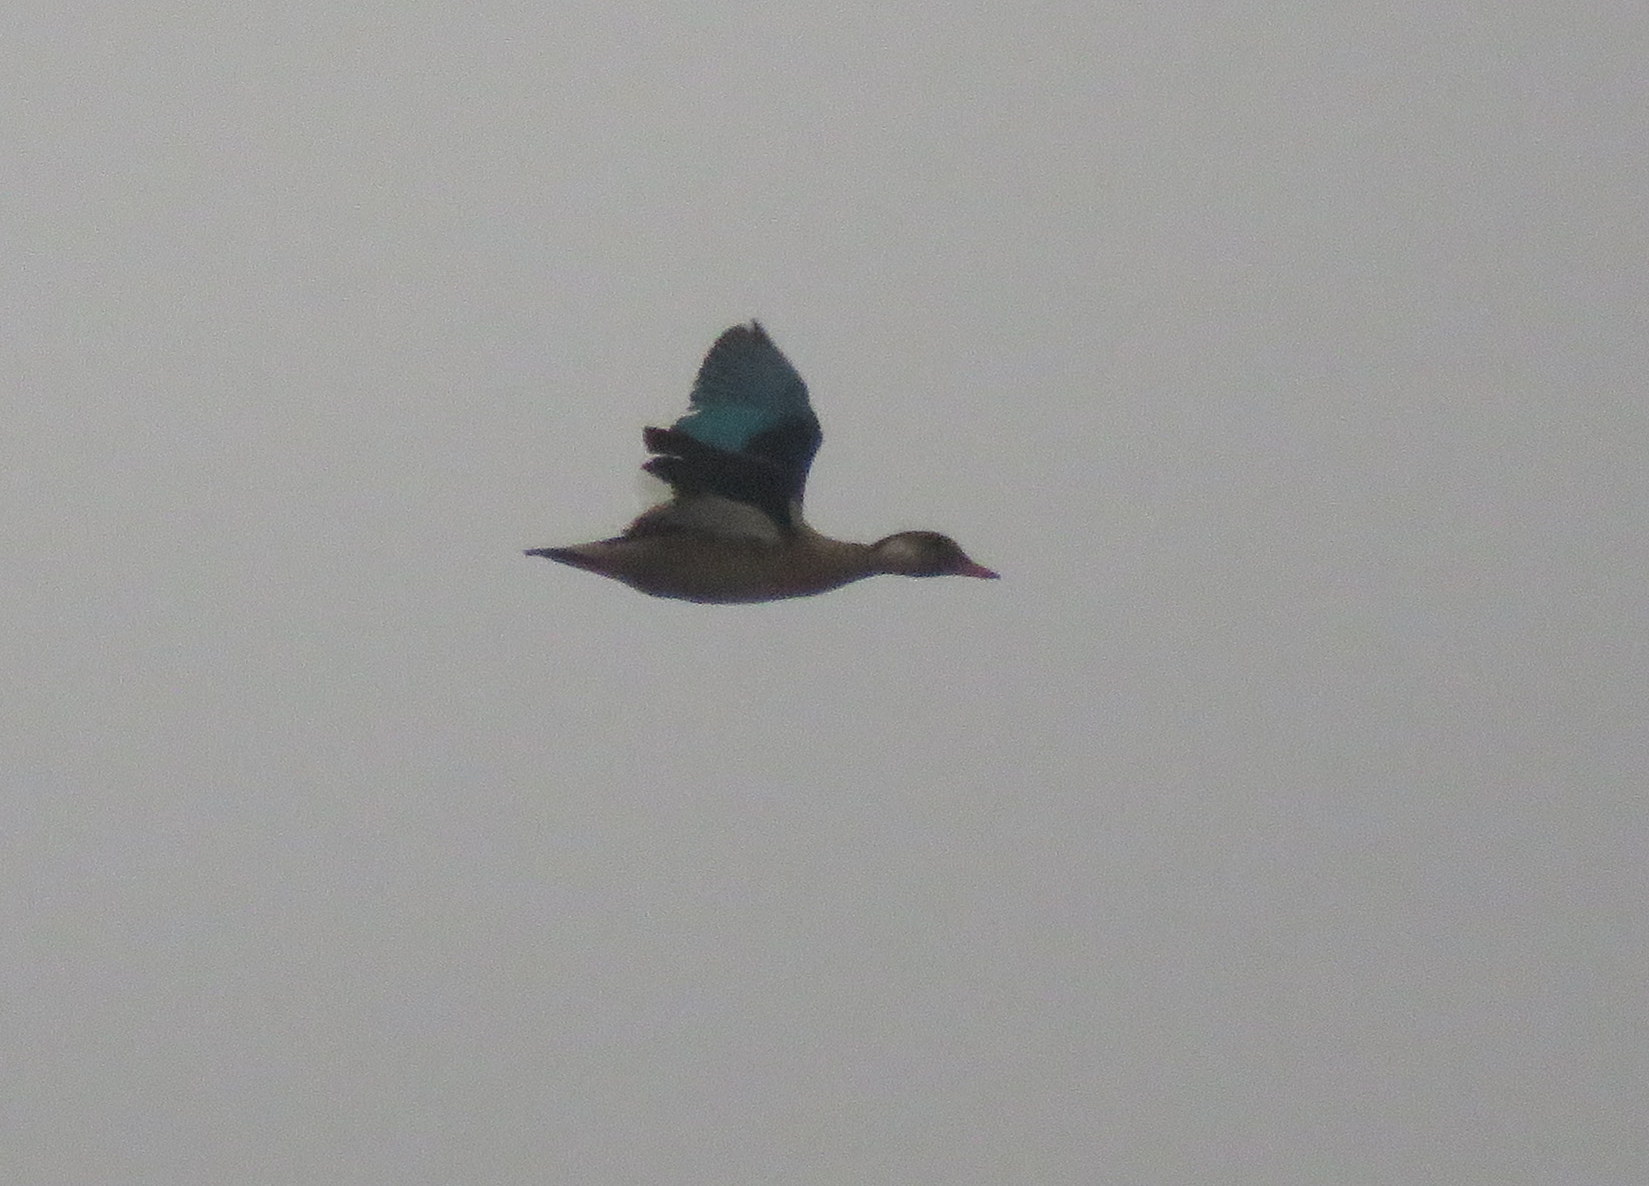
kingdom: Animalia
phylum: Chordata
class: Aves
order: Anseriformes
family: Anatidae
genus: Amazonetta
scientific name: Amazonetta brasiliensis
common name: Brazilian teal
